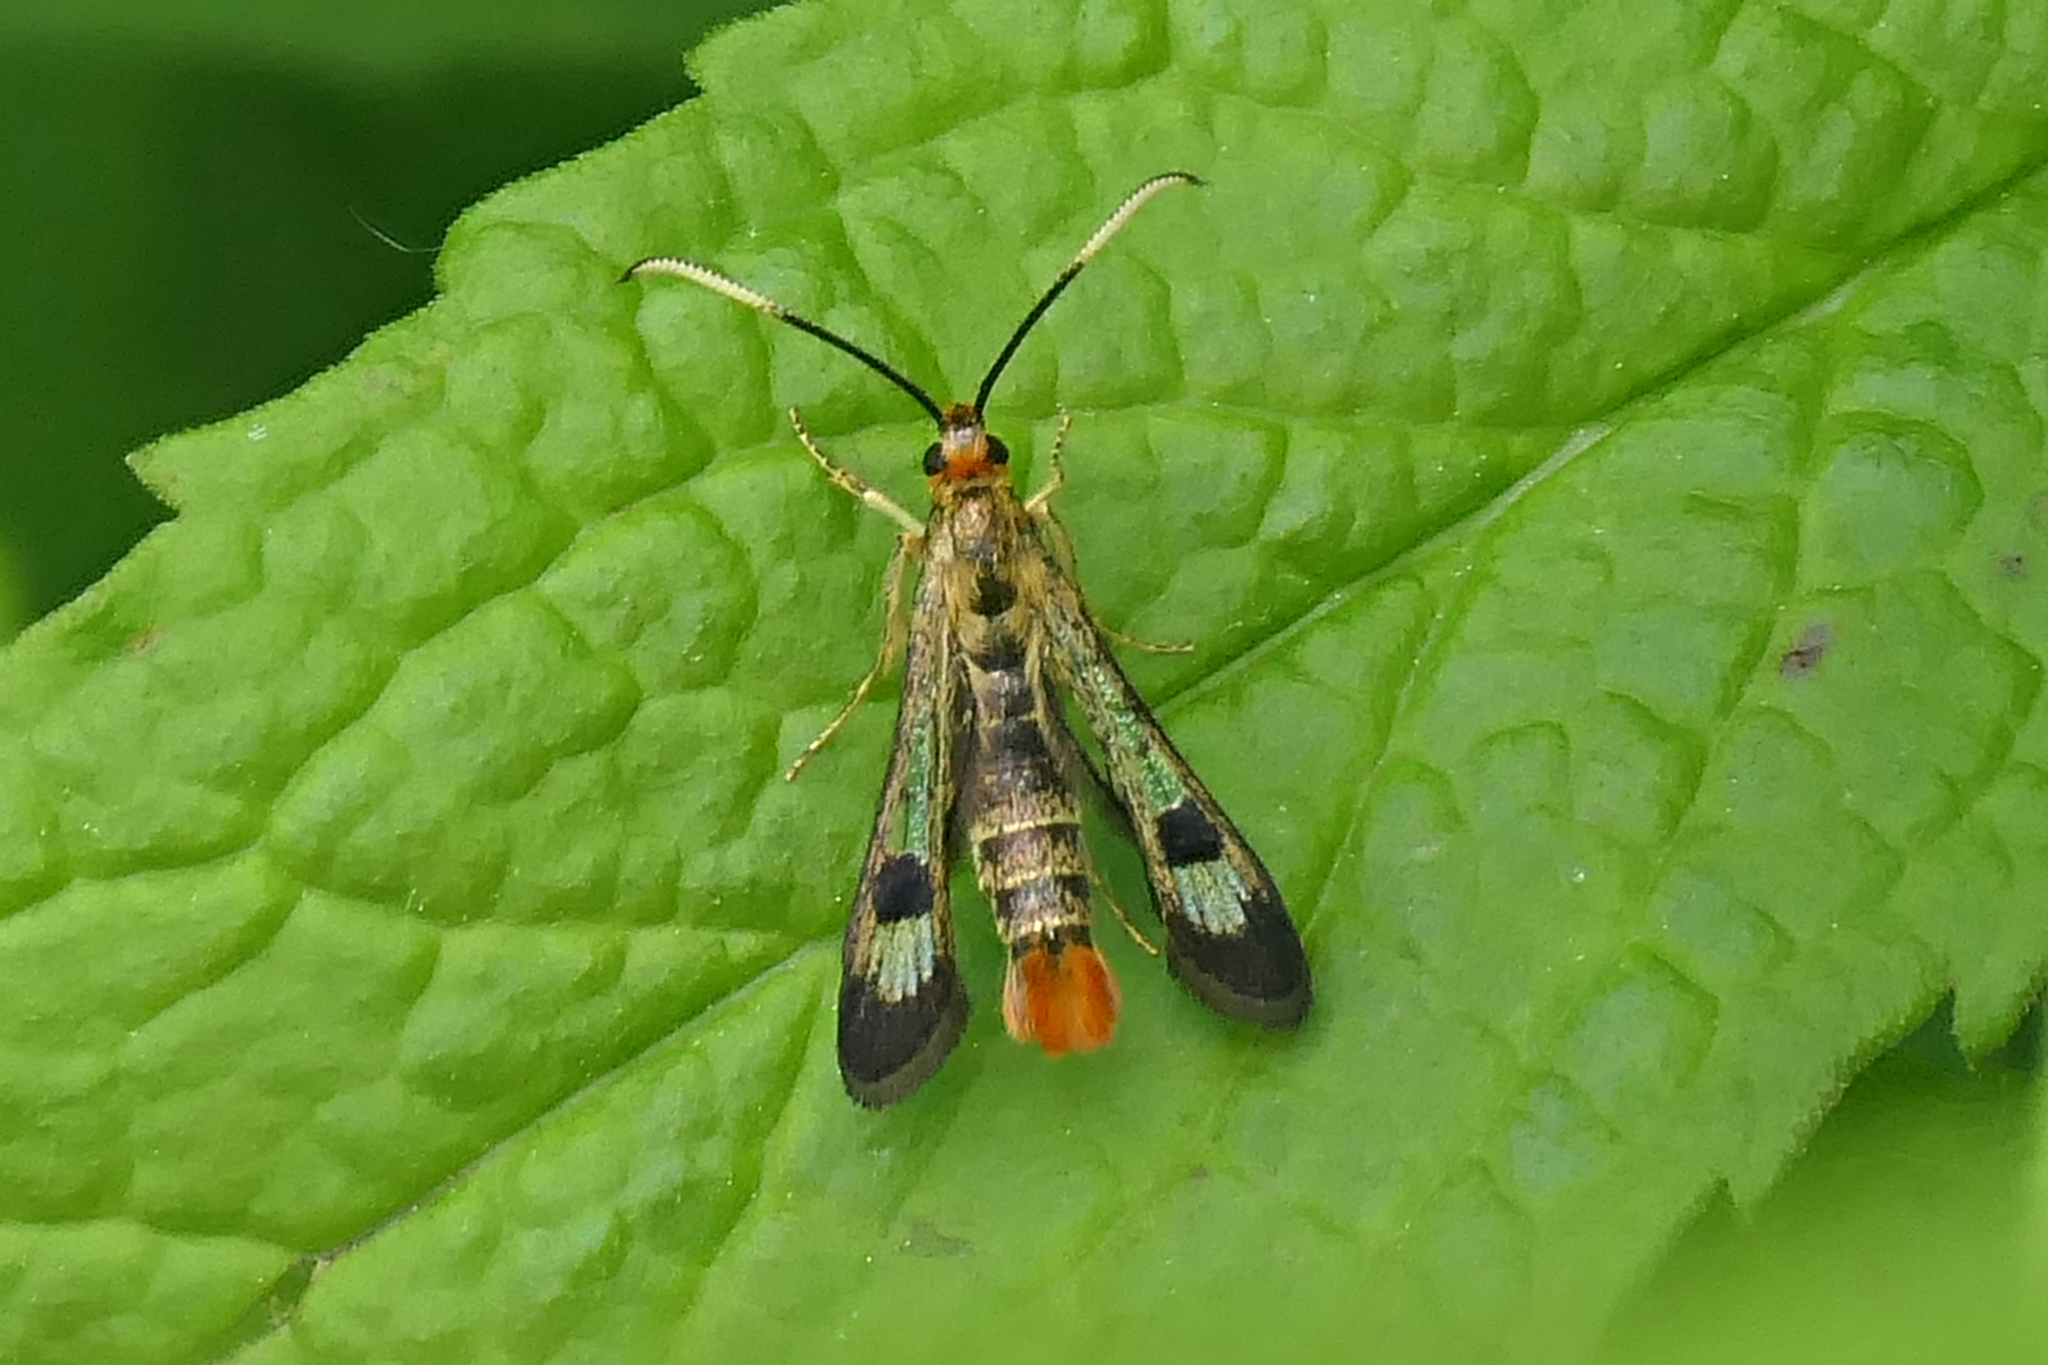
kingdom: Animalia
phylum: Arthropoda
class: Insecta
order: Lepidoptera
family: Sesiidae
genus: Carmenta
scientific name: Carmenta corni
